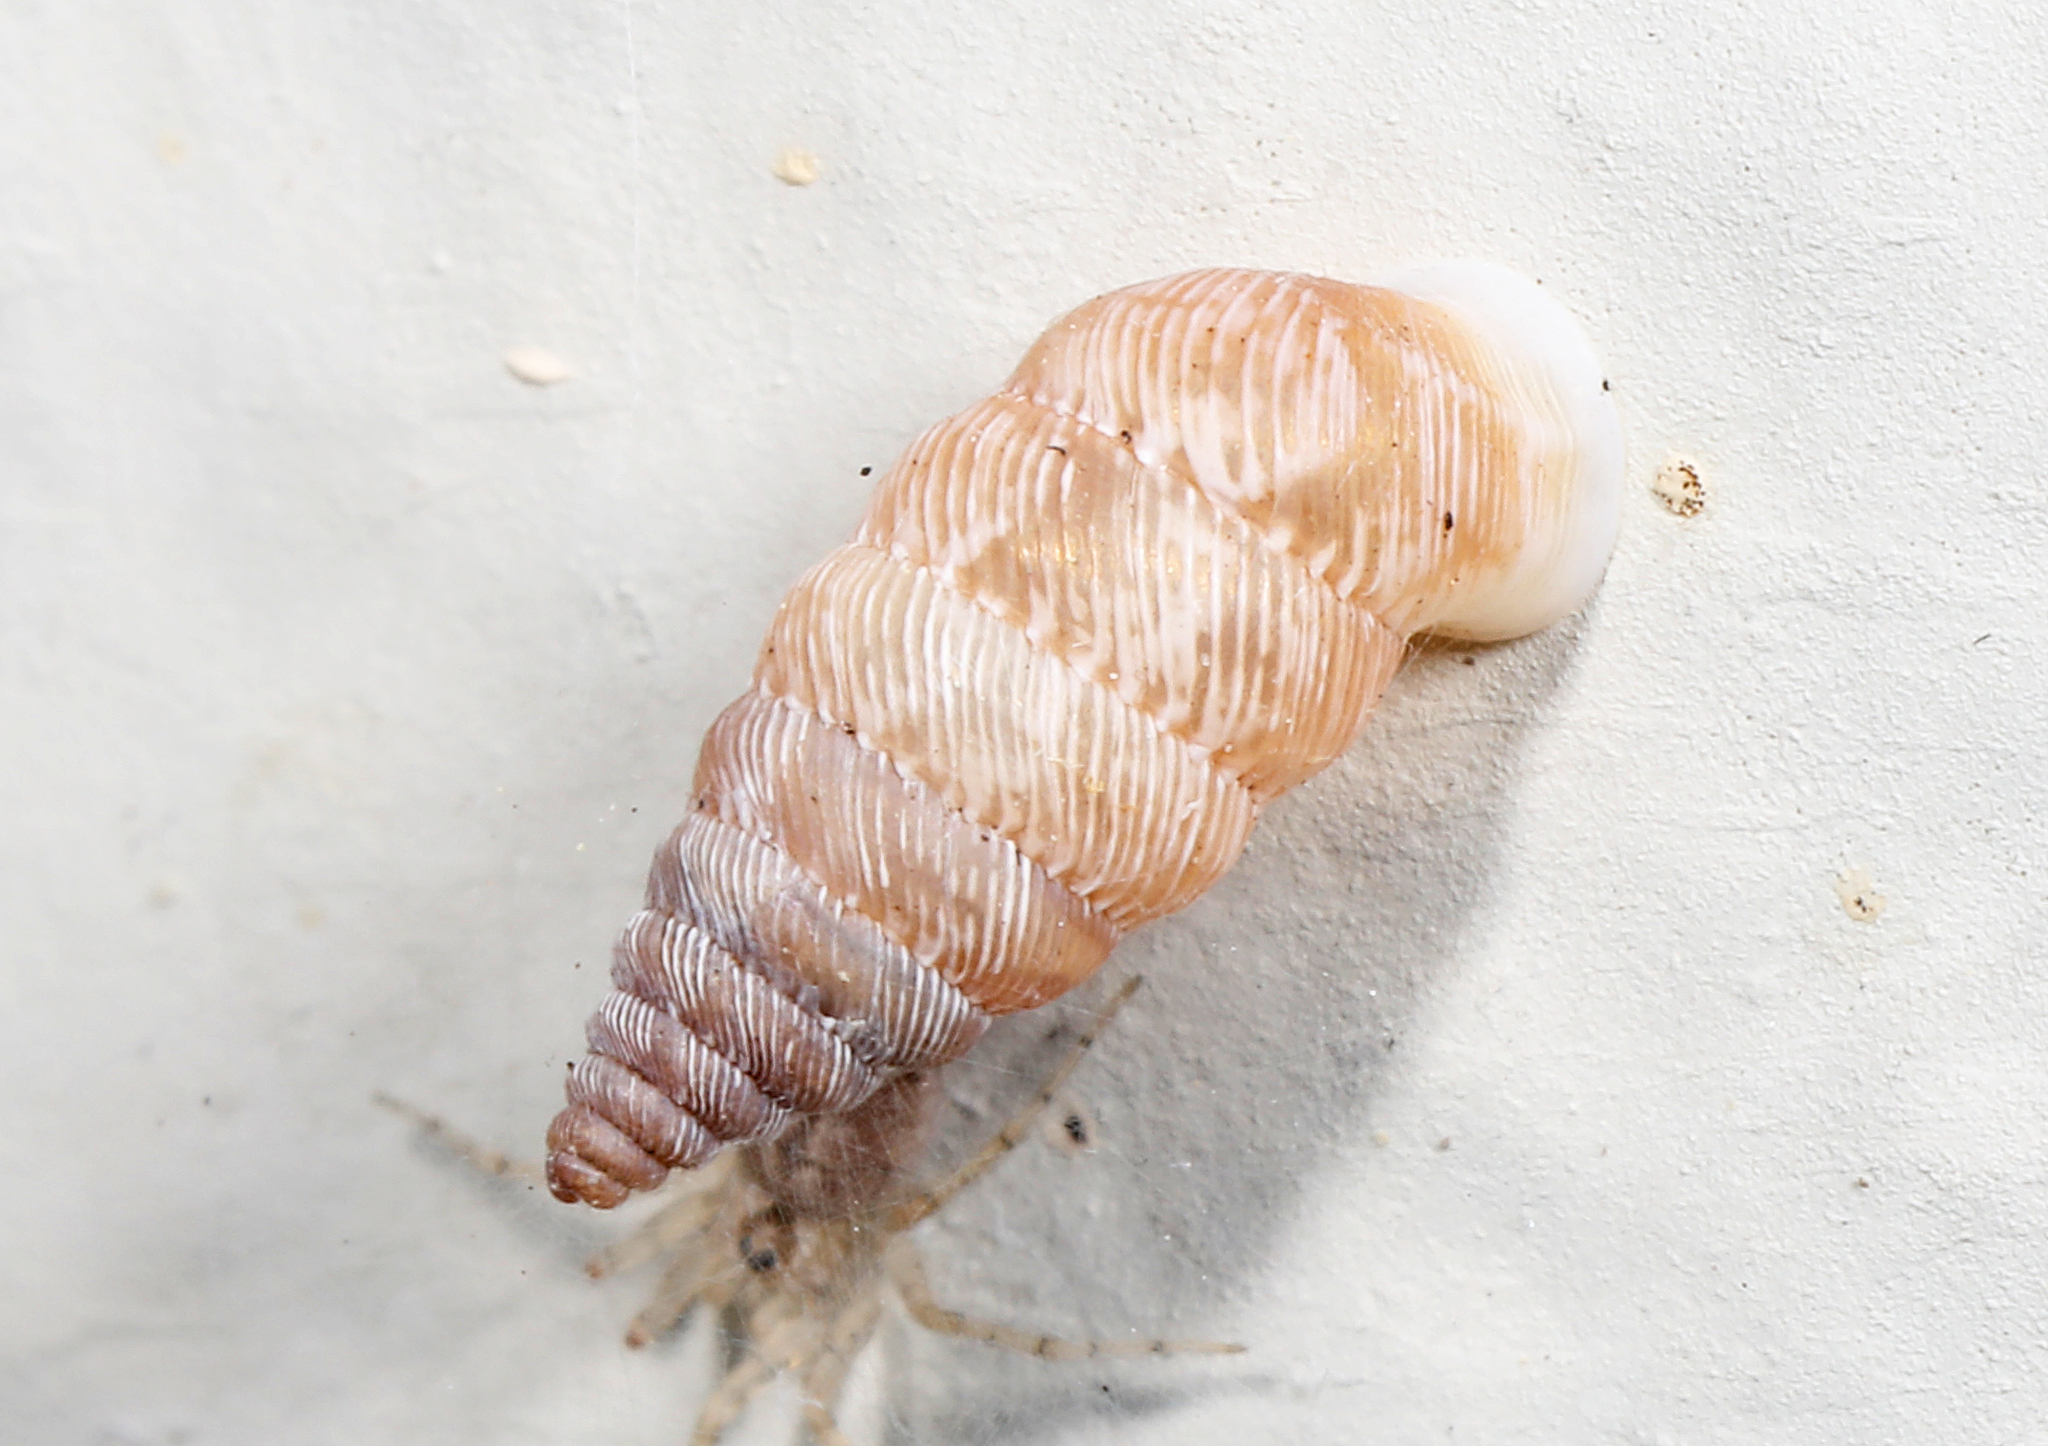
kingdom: Animalia
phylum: Mollusca
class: Gastropoda
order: Stylommatophora
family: Urocoptidae
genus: Microceramus
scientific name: Microceramus pontificus
